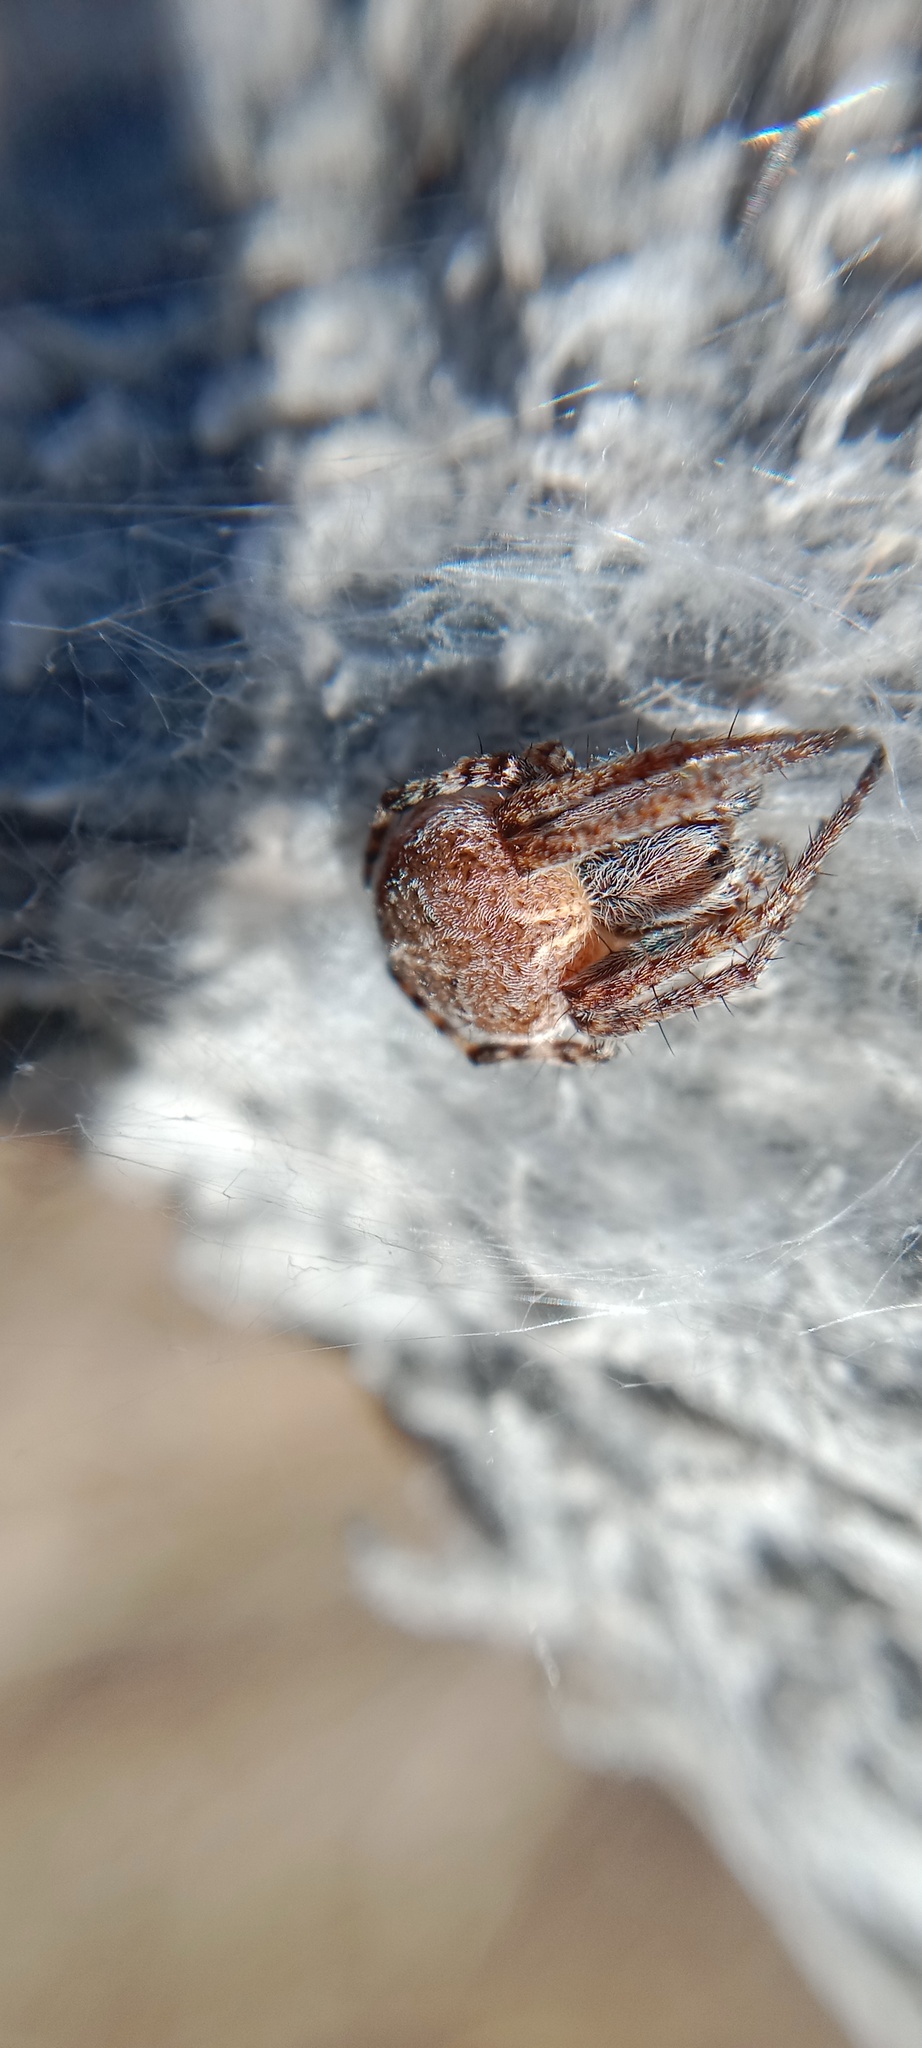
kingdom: Animalia
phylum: Arthropoda
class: Arachnida
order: Araneae
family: Araneidae
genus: Agalenatea
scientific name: Agalenatea redii
